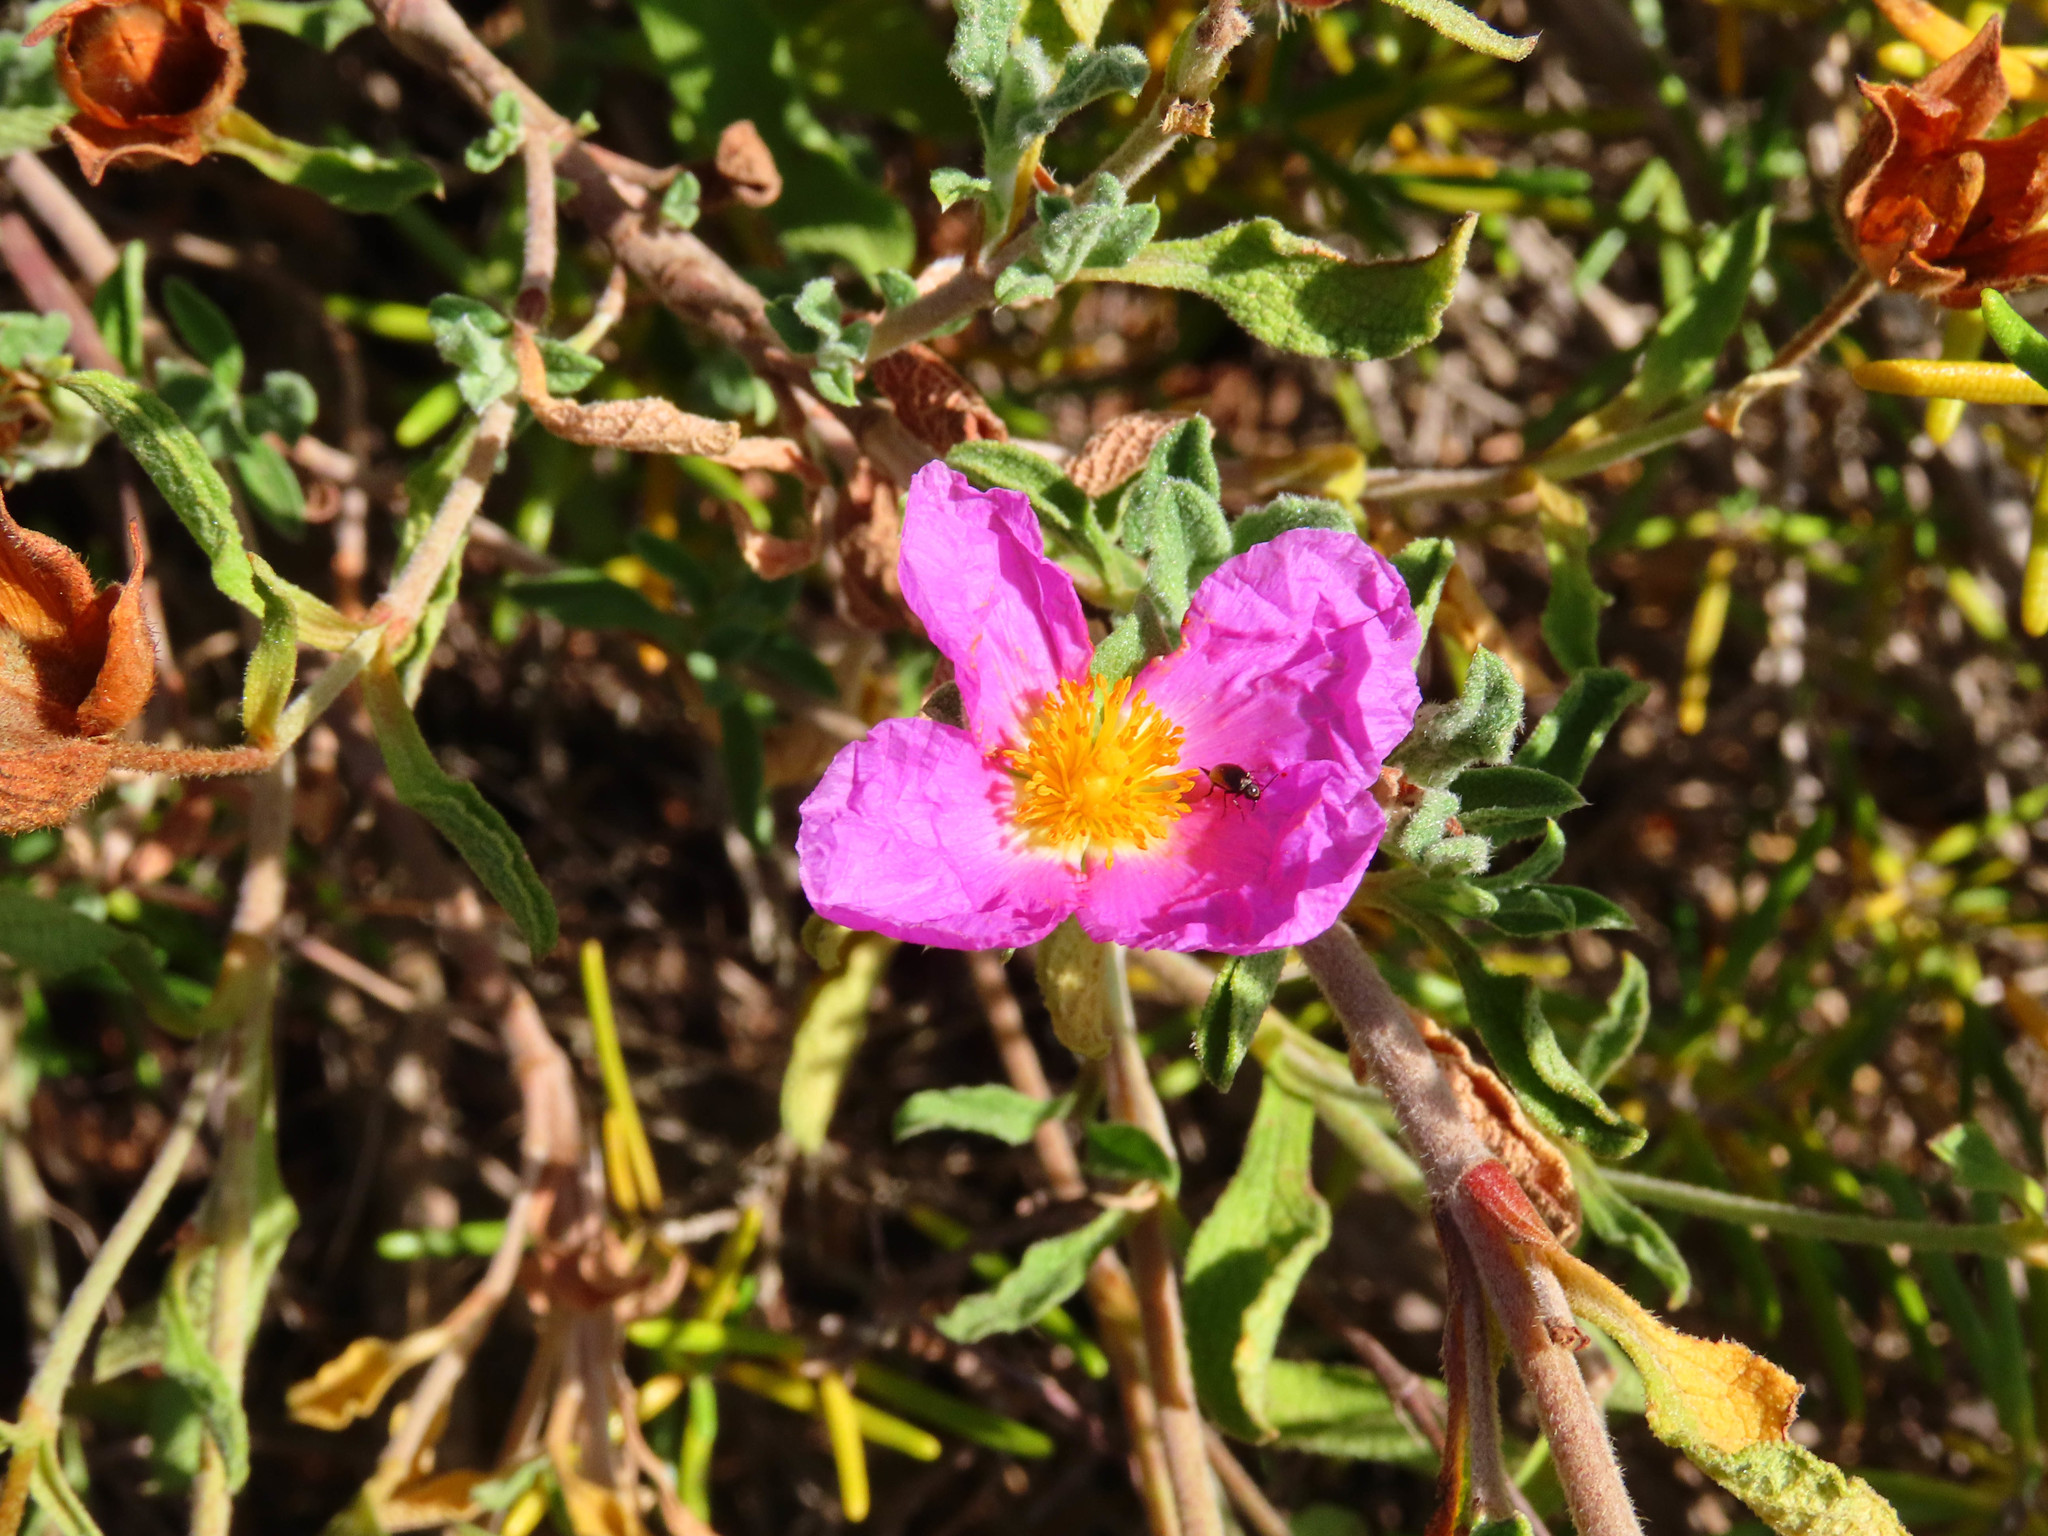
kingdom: Plantae
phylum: Tracheophyta
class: Magnoliopsida
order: Malvales
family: Cistaceae
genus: Cistus
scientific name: Cistus creticus
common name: Cretan rockrose
